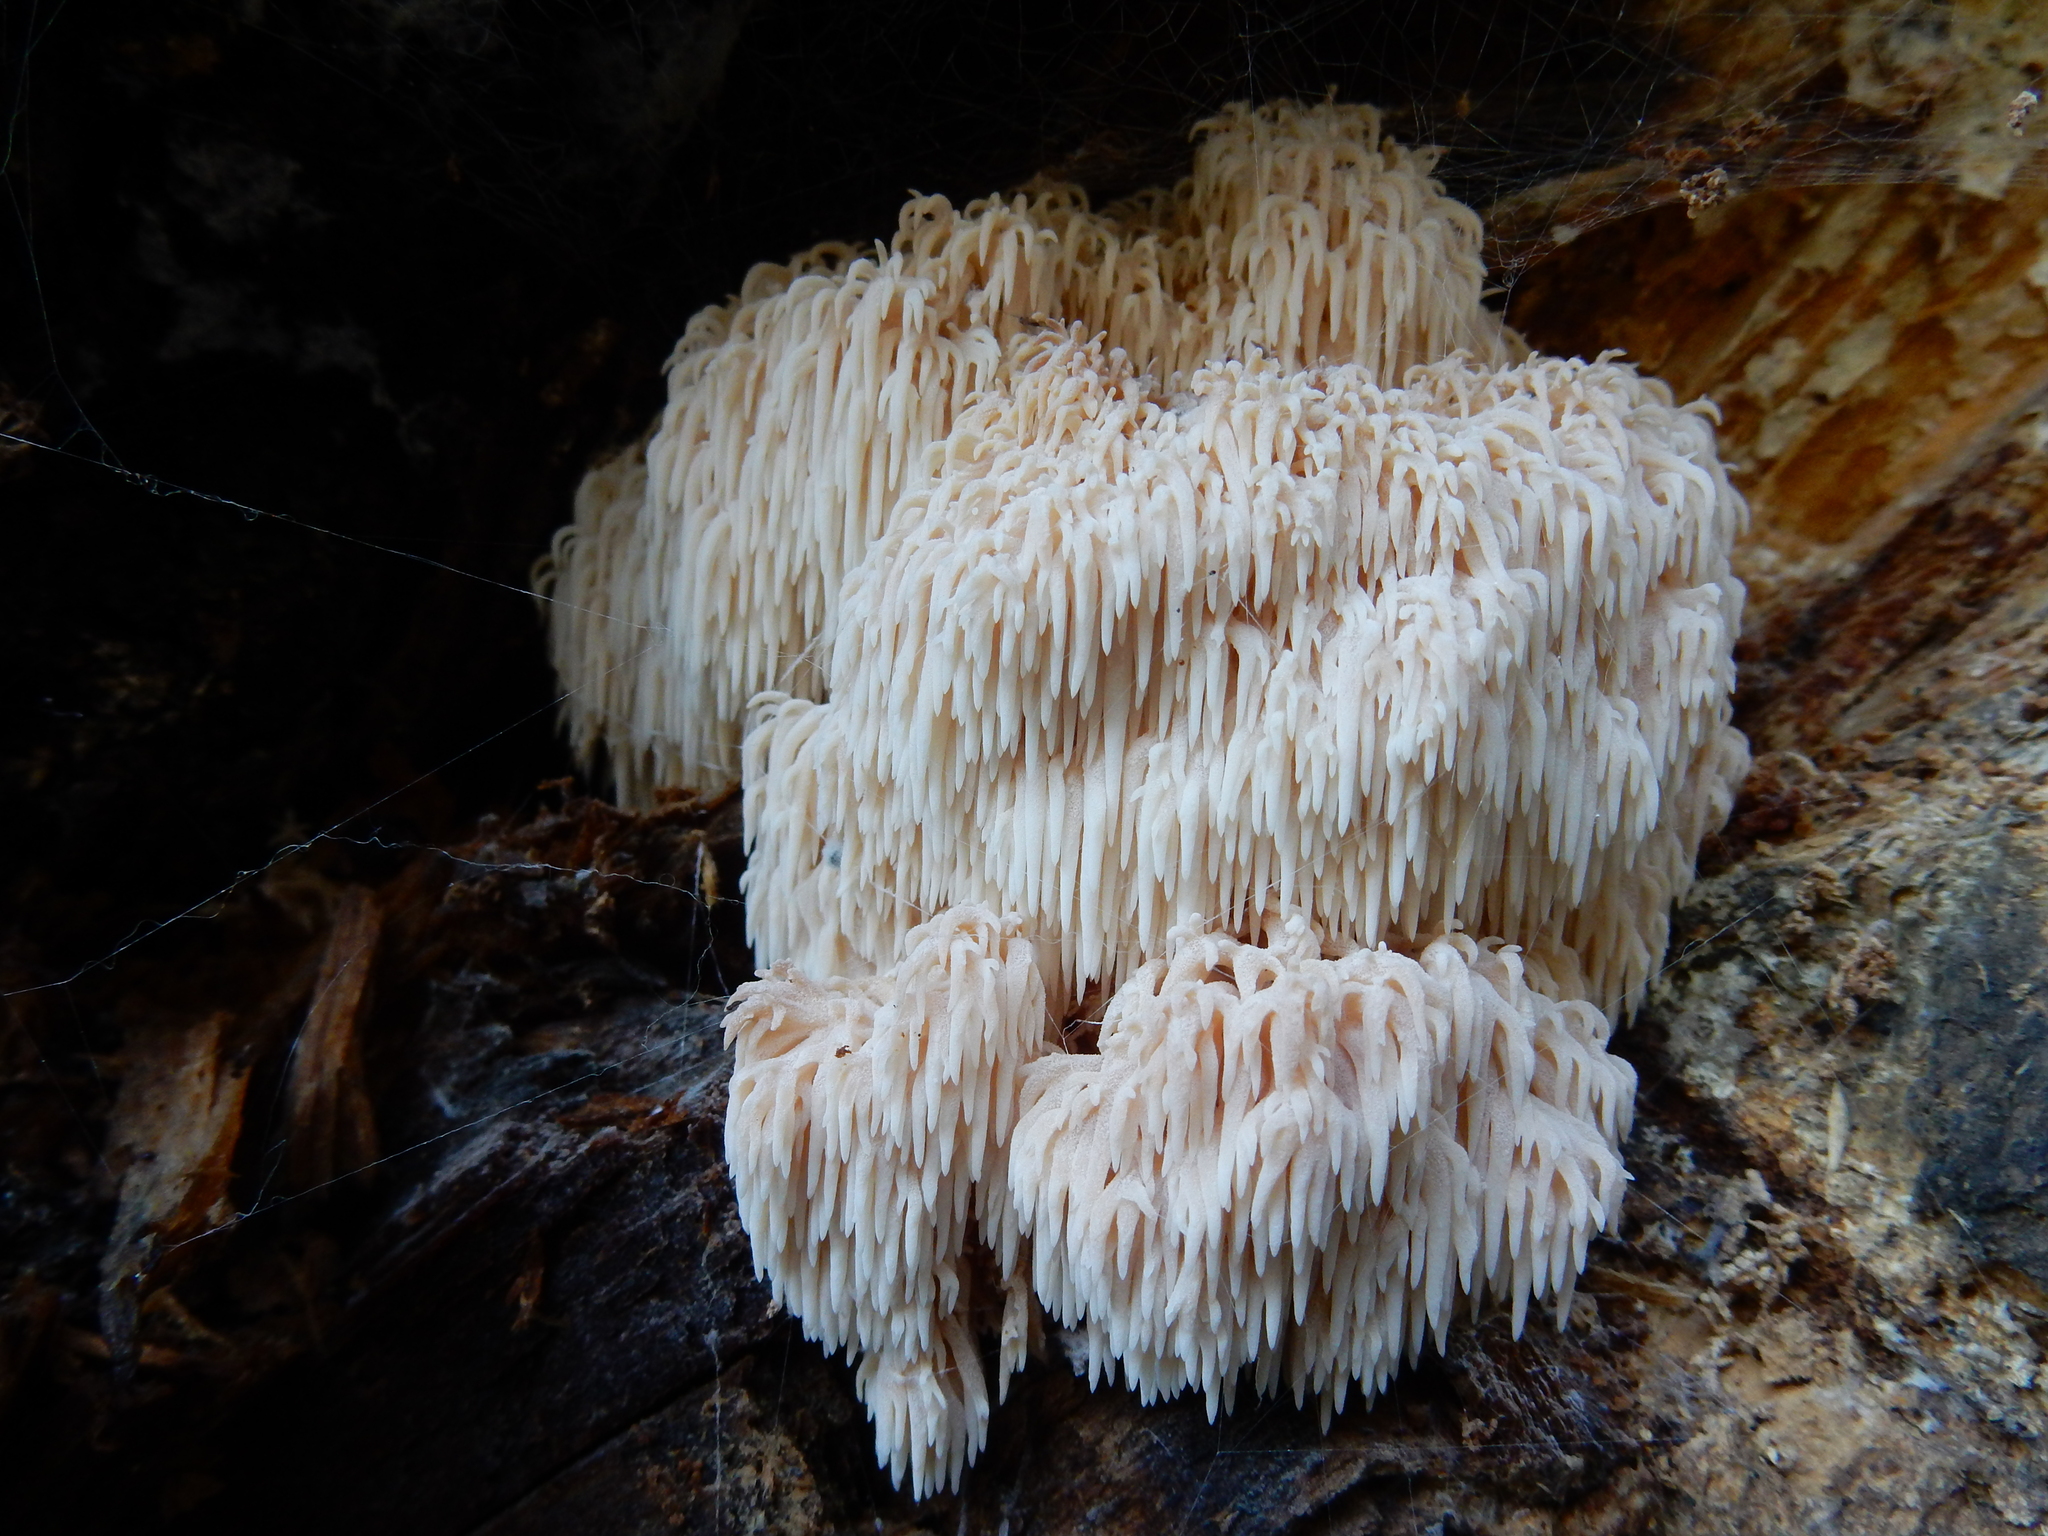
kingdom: Fungi
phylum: Basidiomycota
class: Agaricomycetes
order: Russulales
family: Hericiaceae
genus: Hericium
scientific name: Hericium novae-zealandiae
